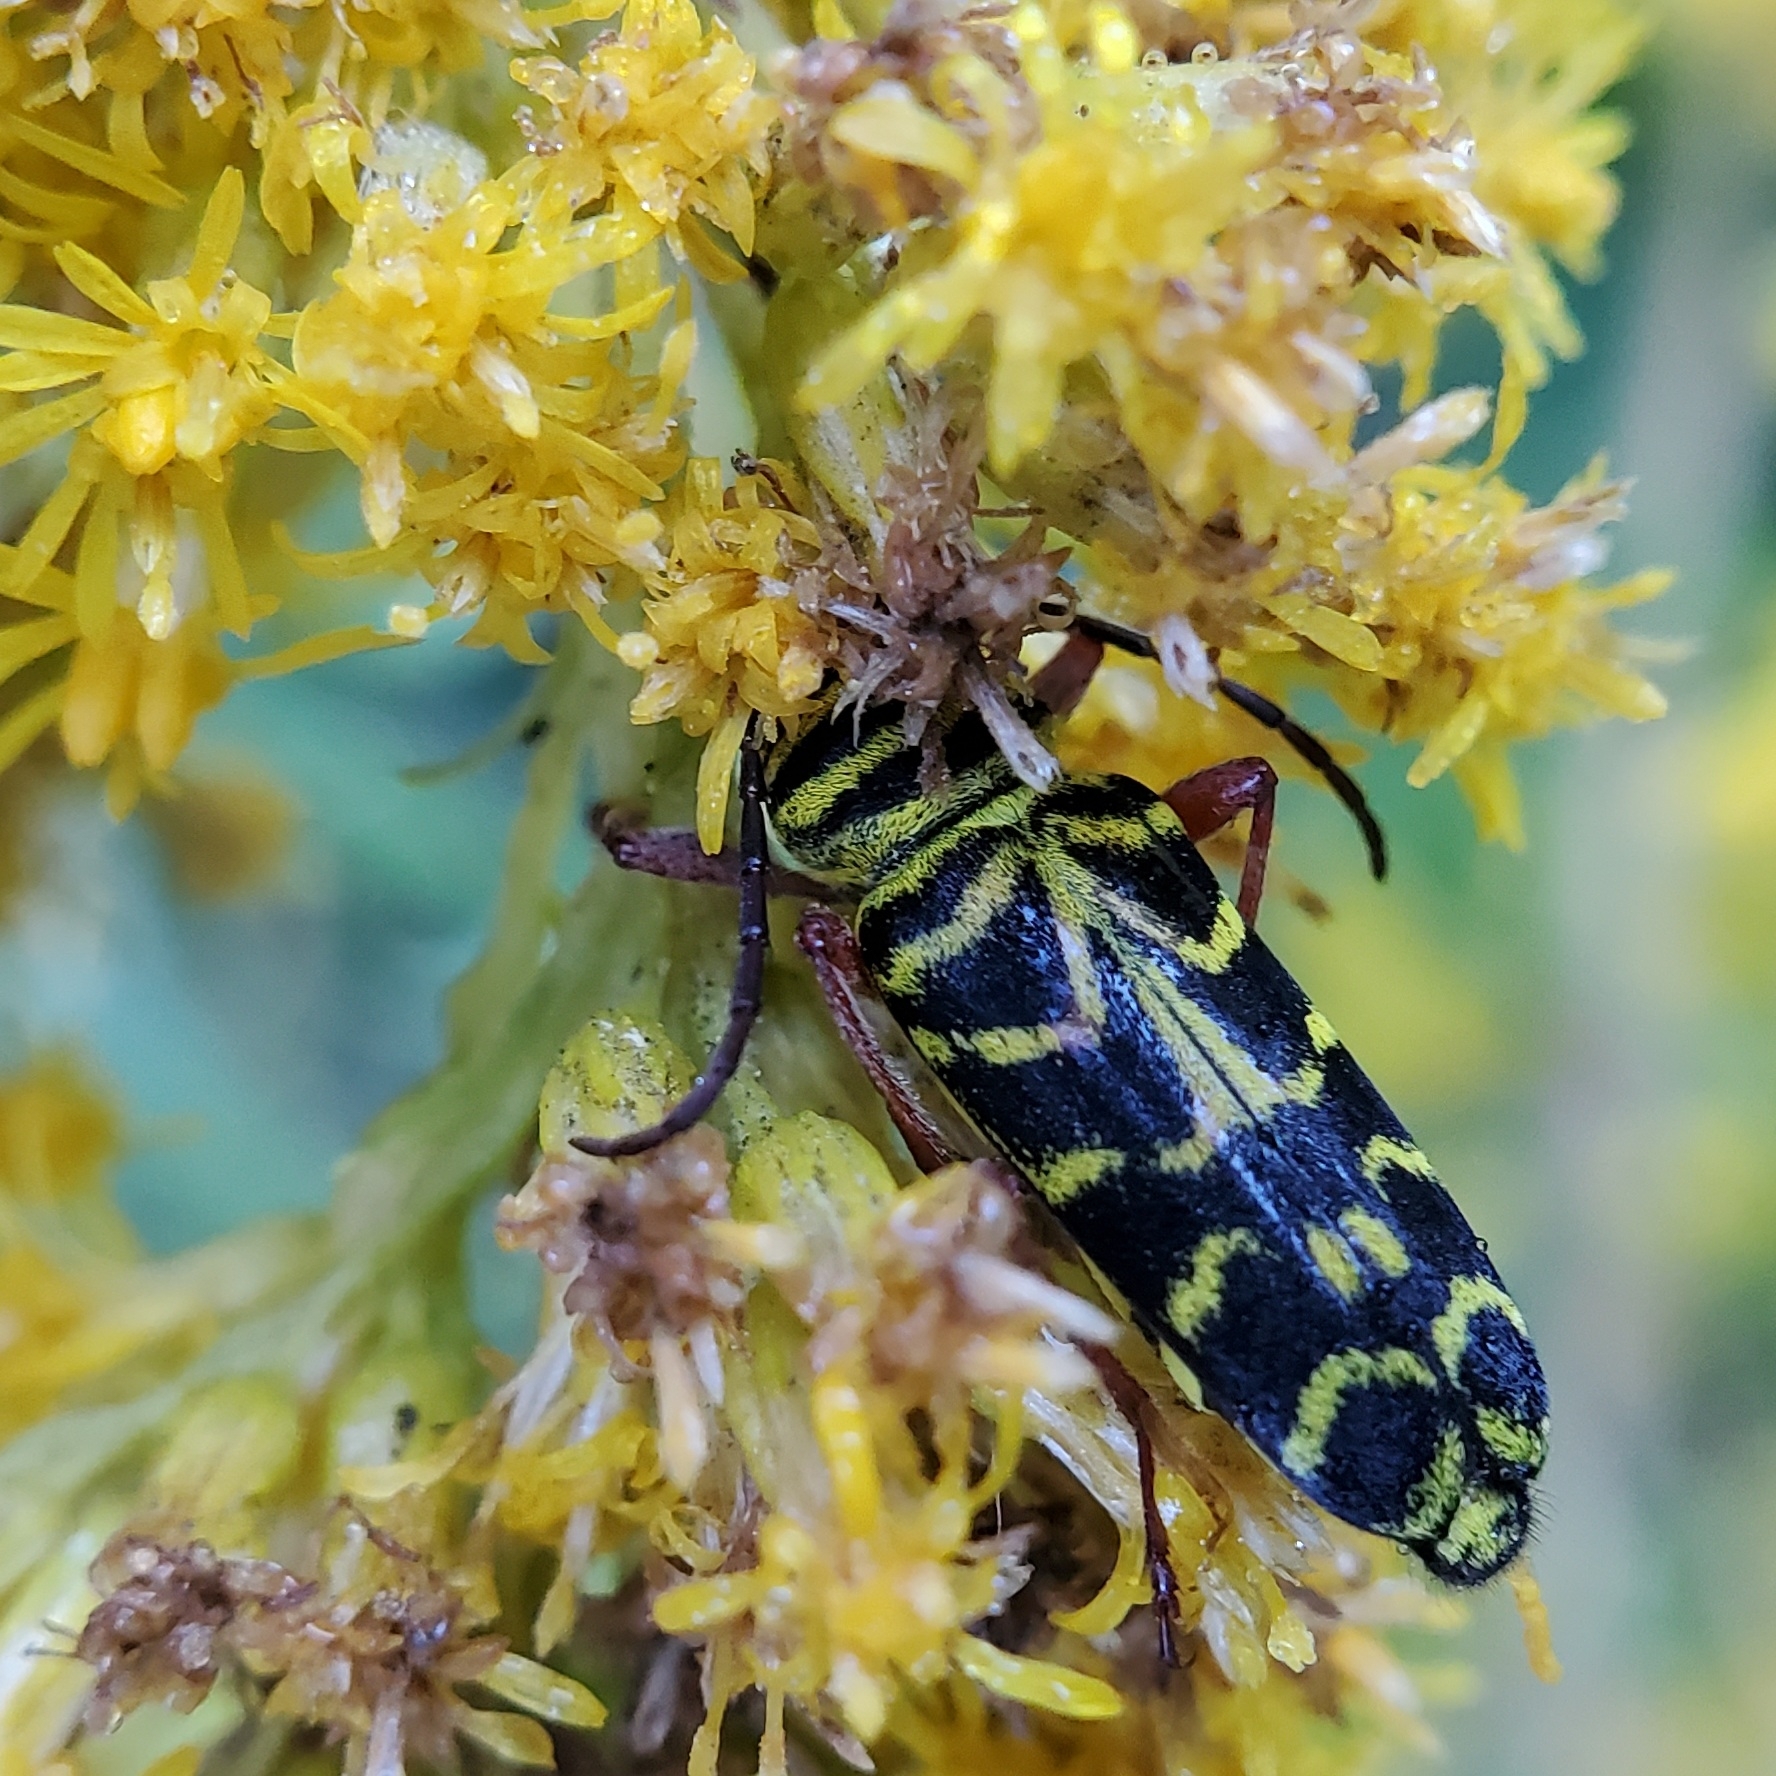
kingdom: Animalia
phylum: Arthropoda
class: Insecta
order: Coleoptera
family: Cerambycidae
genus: Megacyllene
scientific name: Megacyllene robiniae
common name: Locust borer
